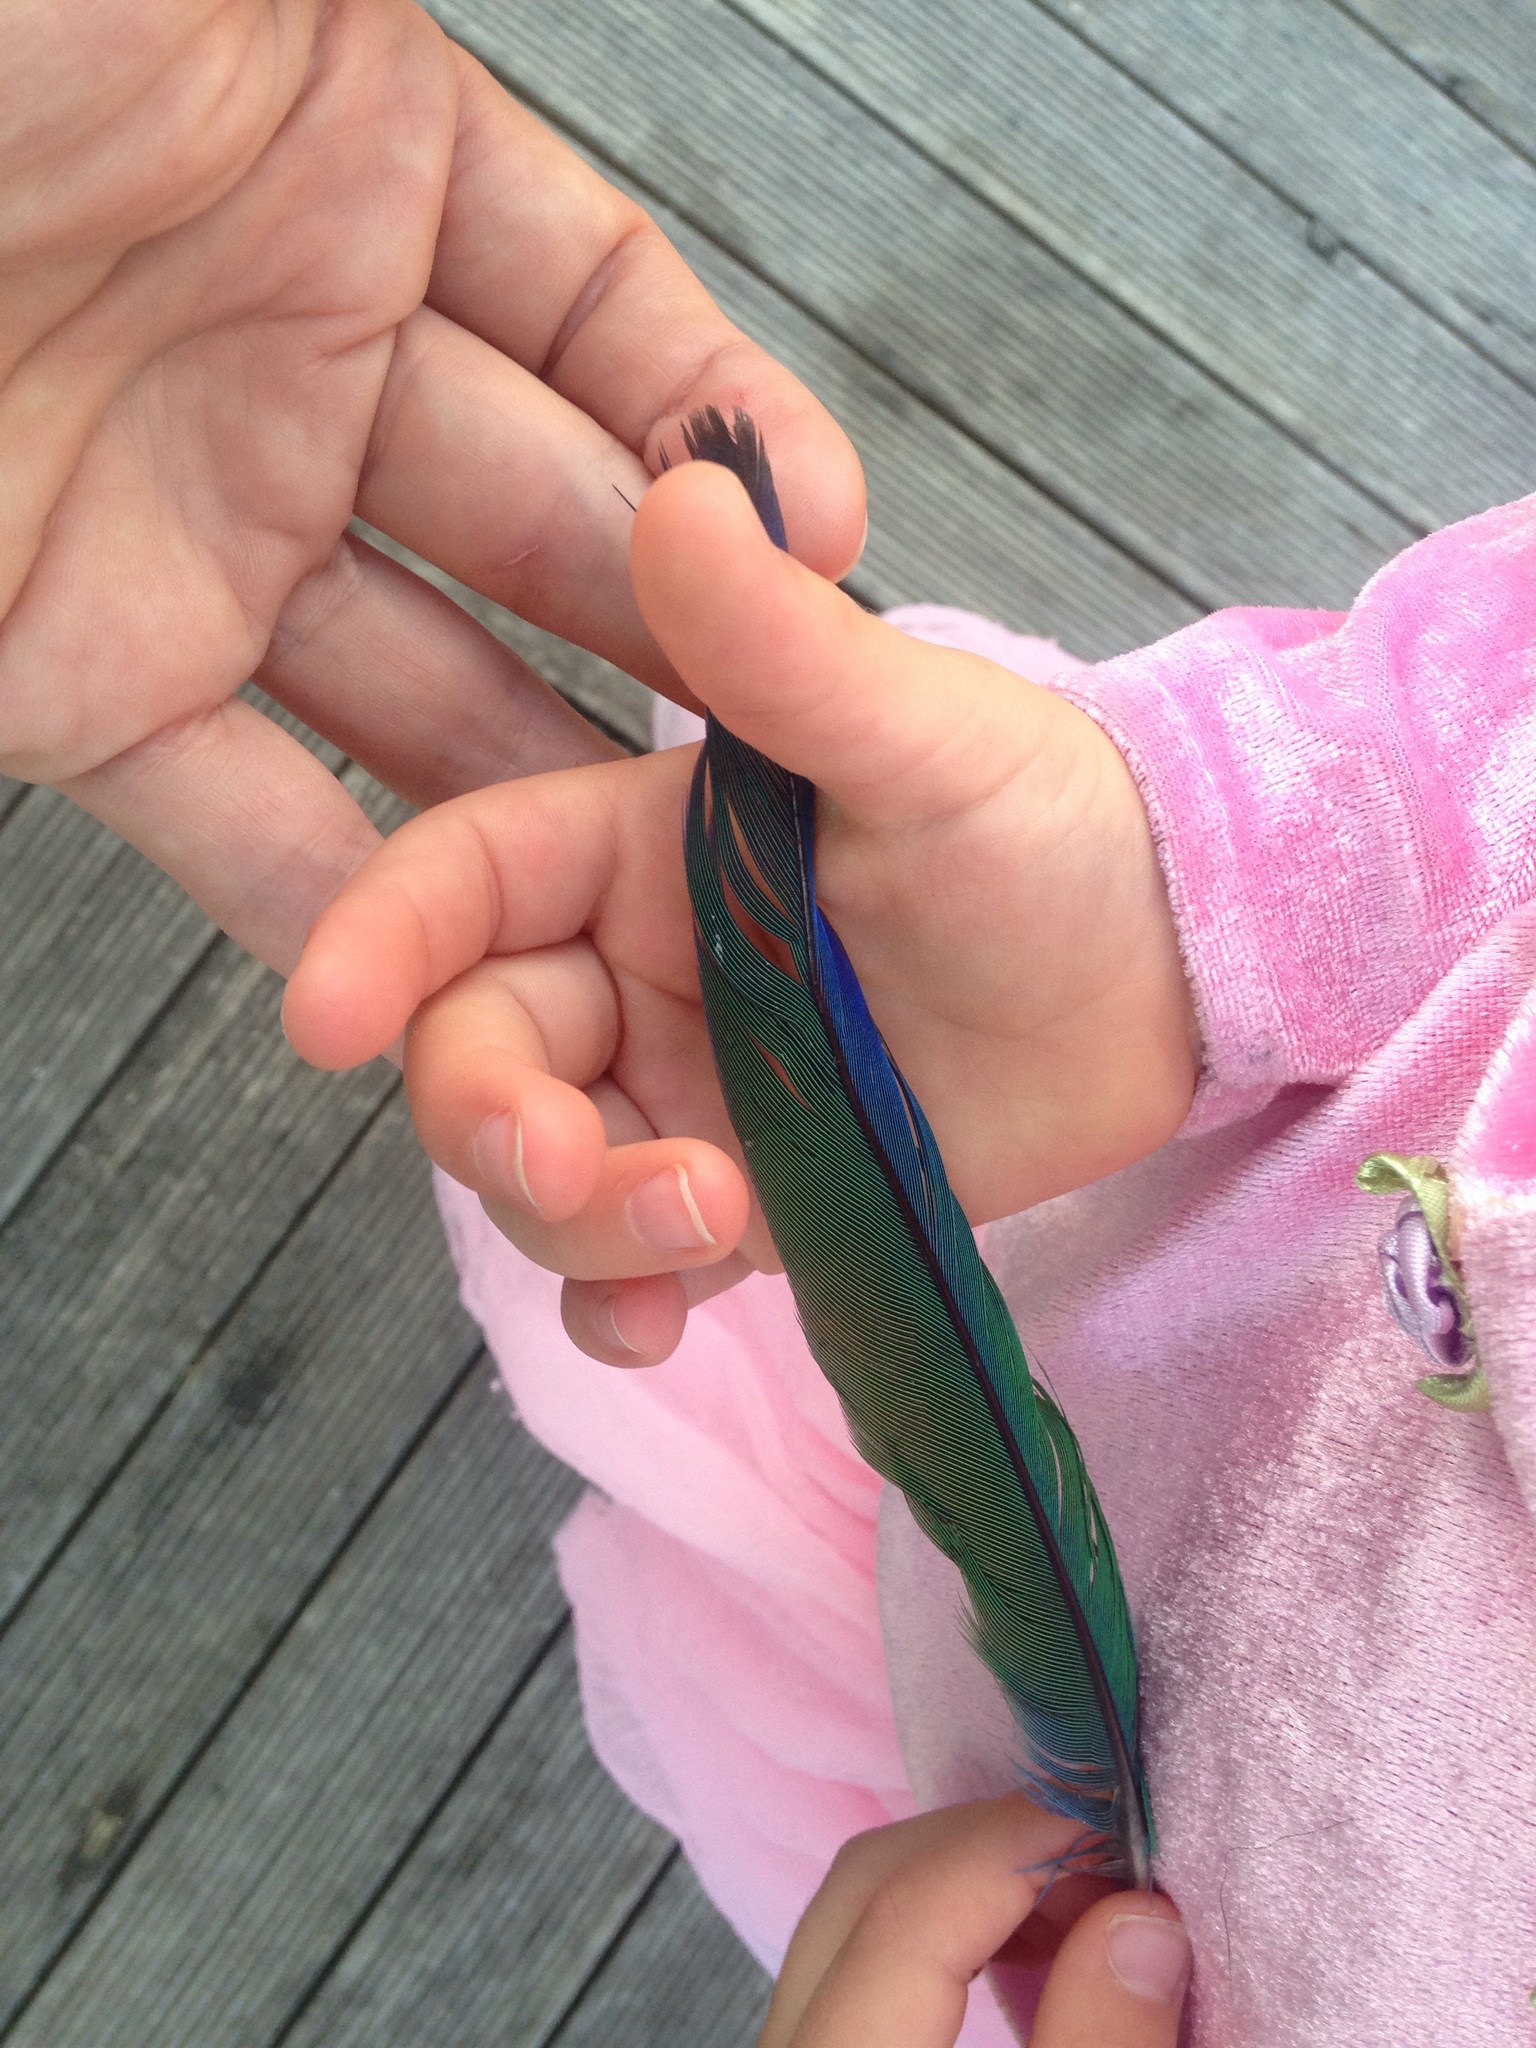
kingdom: Animalia
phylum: Chordata
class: Aves
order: Psittaciformes
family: Psittacidae
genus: Platycercus
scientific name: Platycercus eximius
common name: Eastern rosella
